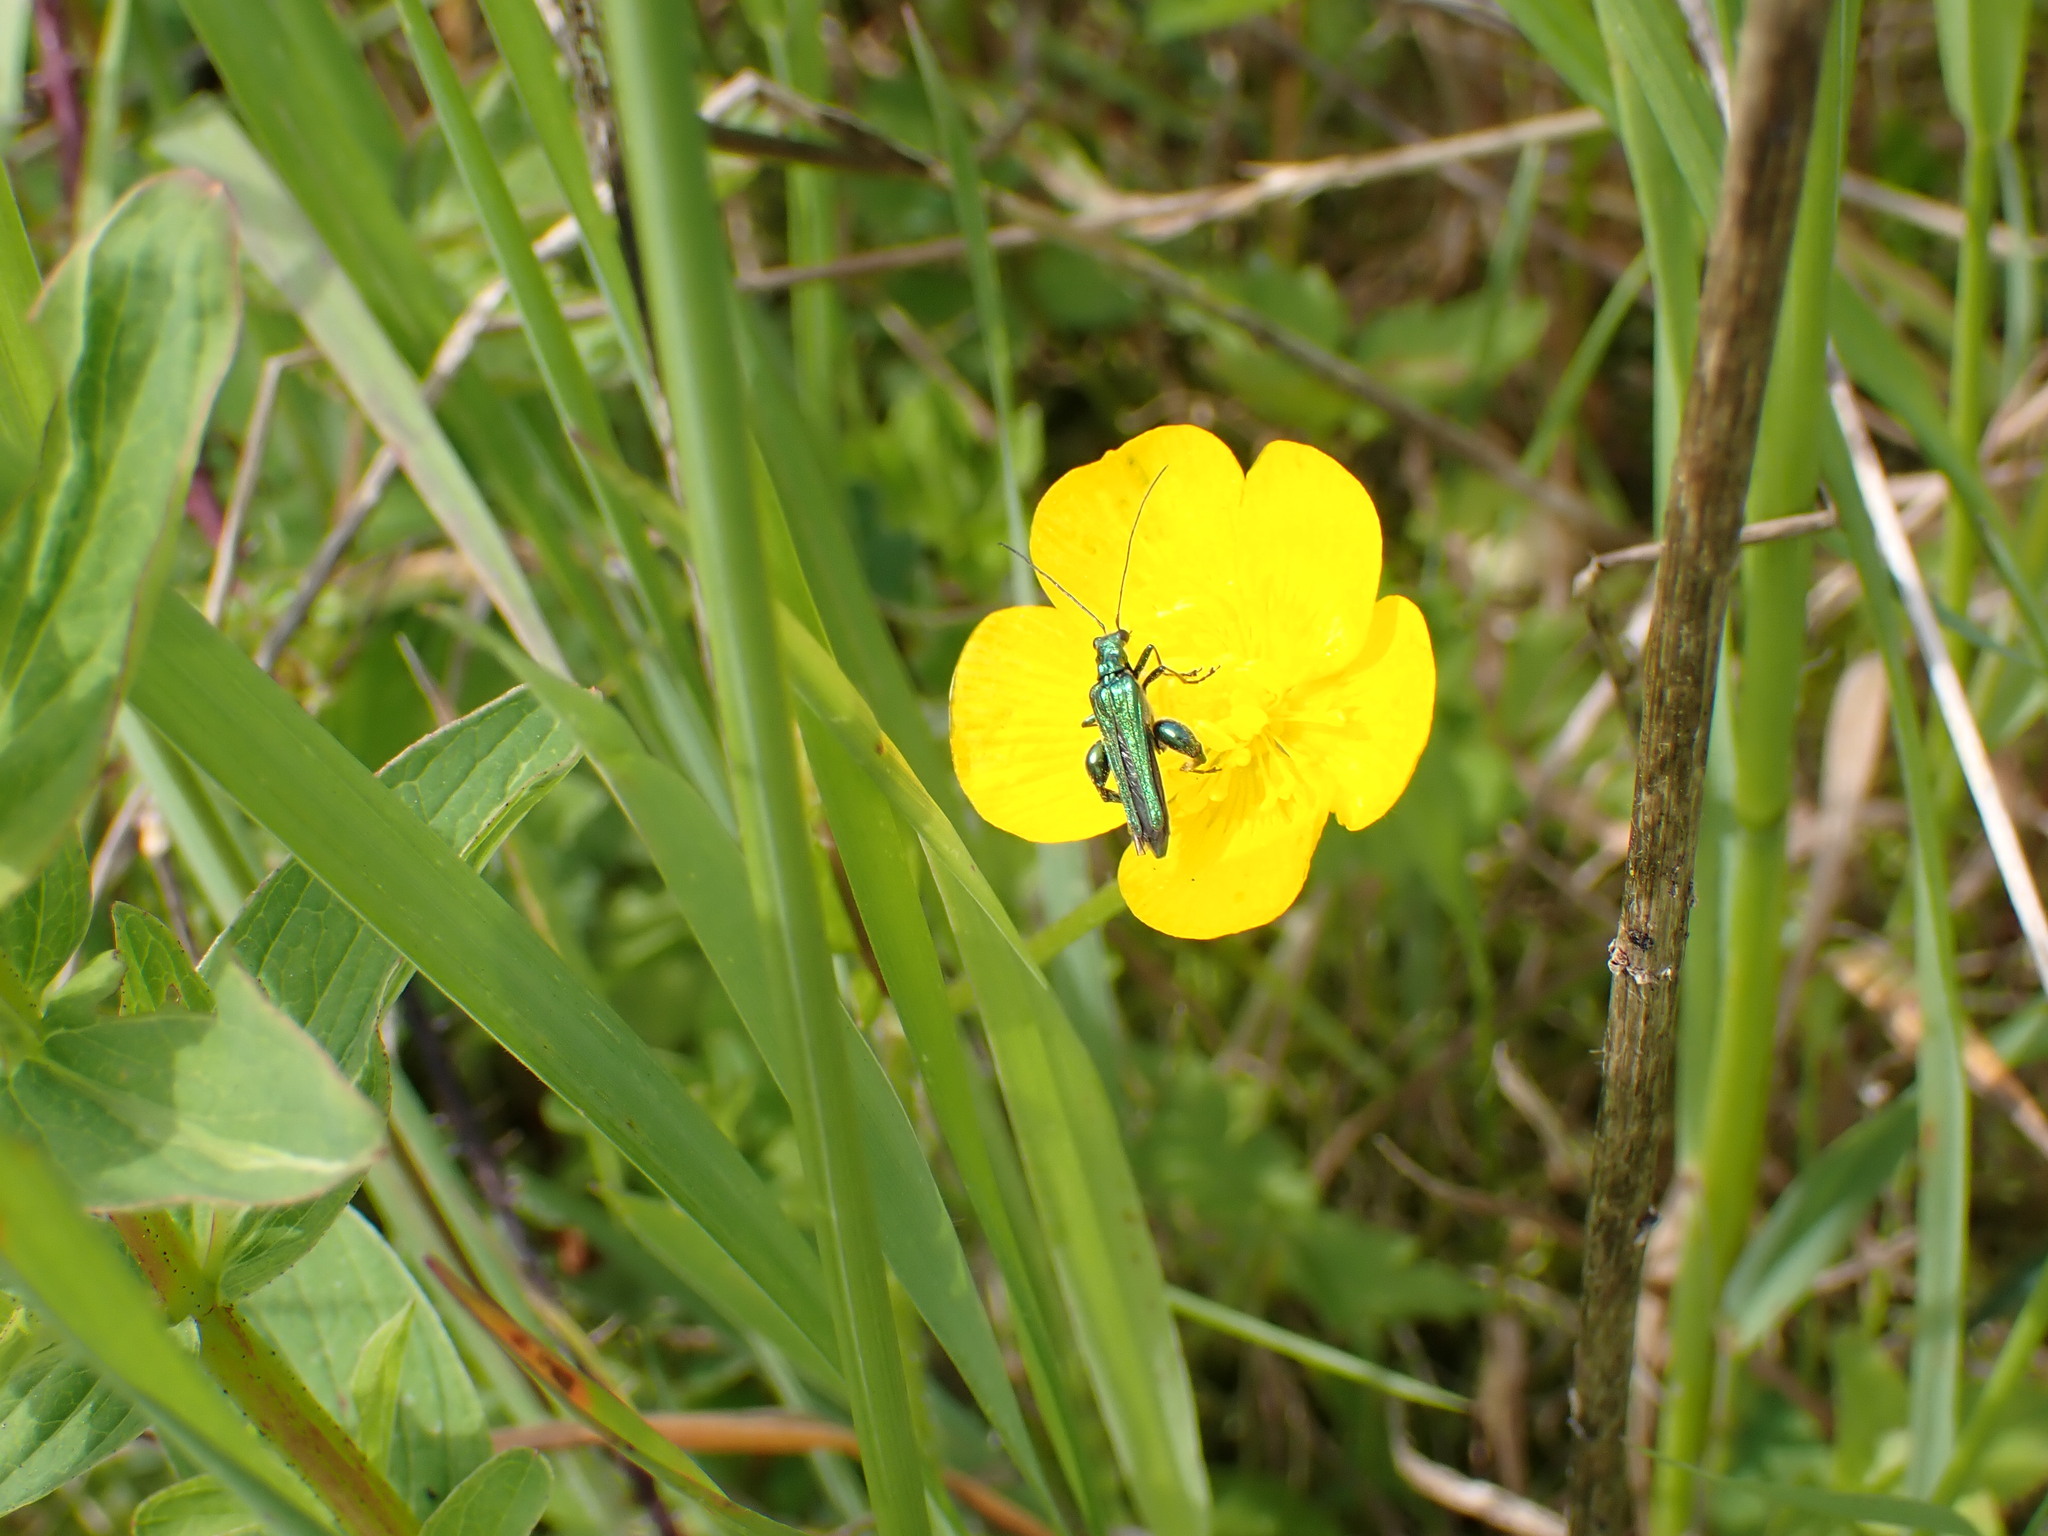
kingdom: Animalia
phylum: Arthropoda
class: Insecta
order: Coleoptera
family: Oedemeridae
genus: Oedemera
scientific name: Oedemera nobilis
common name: Swollen-thighed beetle
